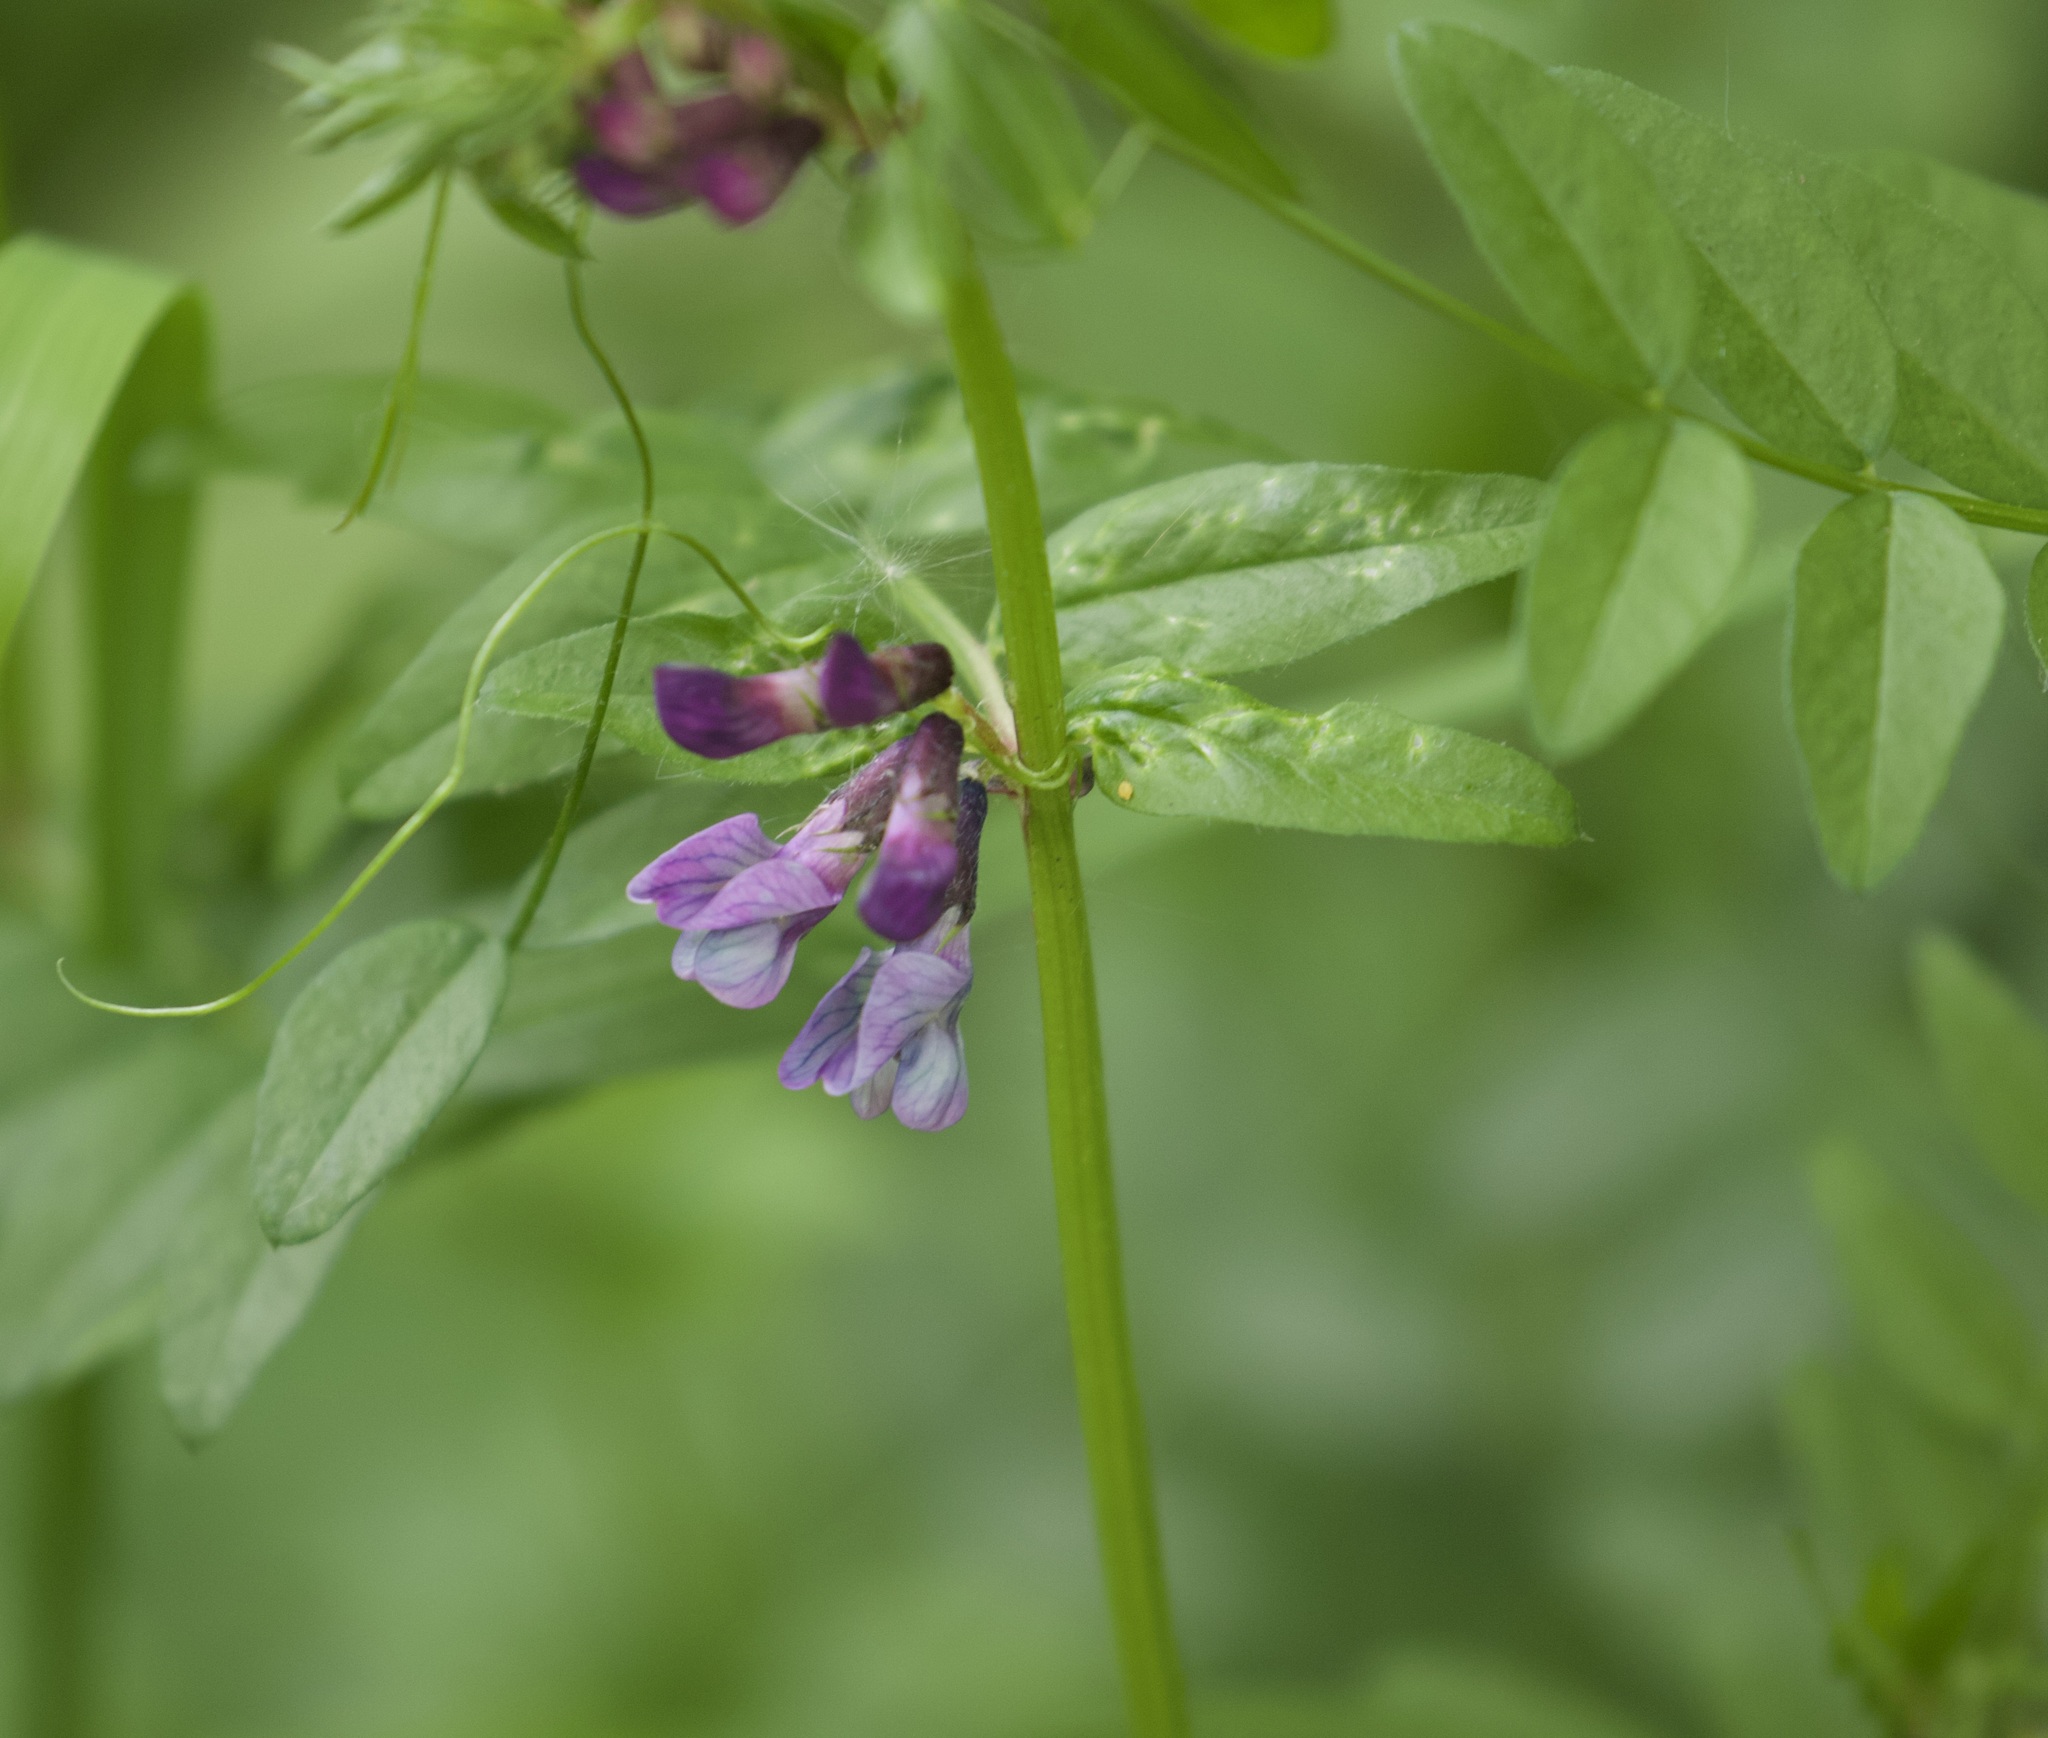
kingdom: Plantae
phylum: Tracheophyta
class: Magnoliopsida
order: Fabales
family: Fabaceae
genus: Vicia
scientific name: Vicia sepium
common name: Bush vetch
